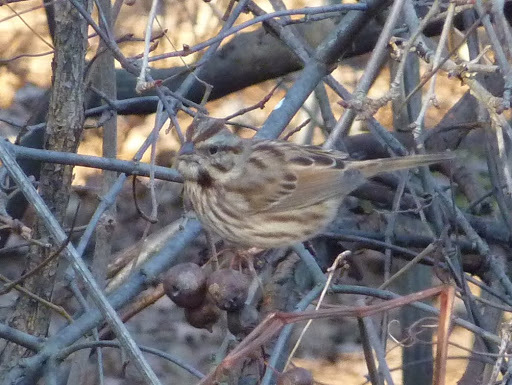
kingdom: Animalia
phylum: Chordata
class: Aves
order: Passeriformes
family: Passerellidae
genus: Melospiza
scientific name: Melospiza melodia
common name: Song sparrow
